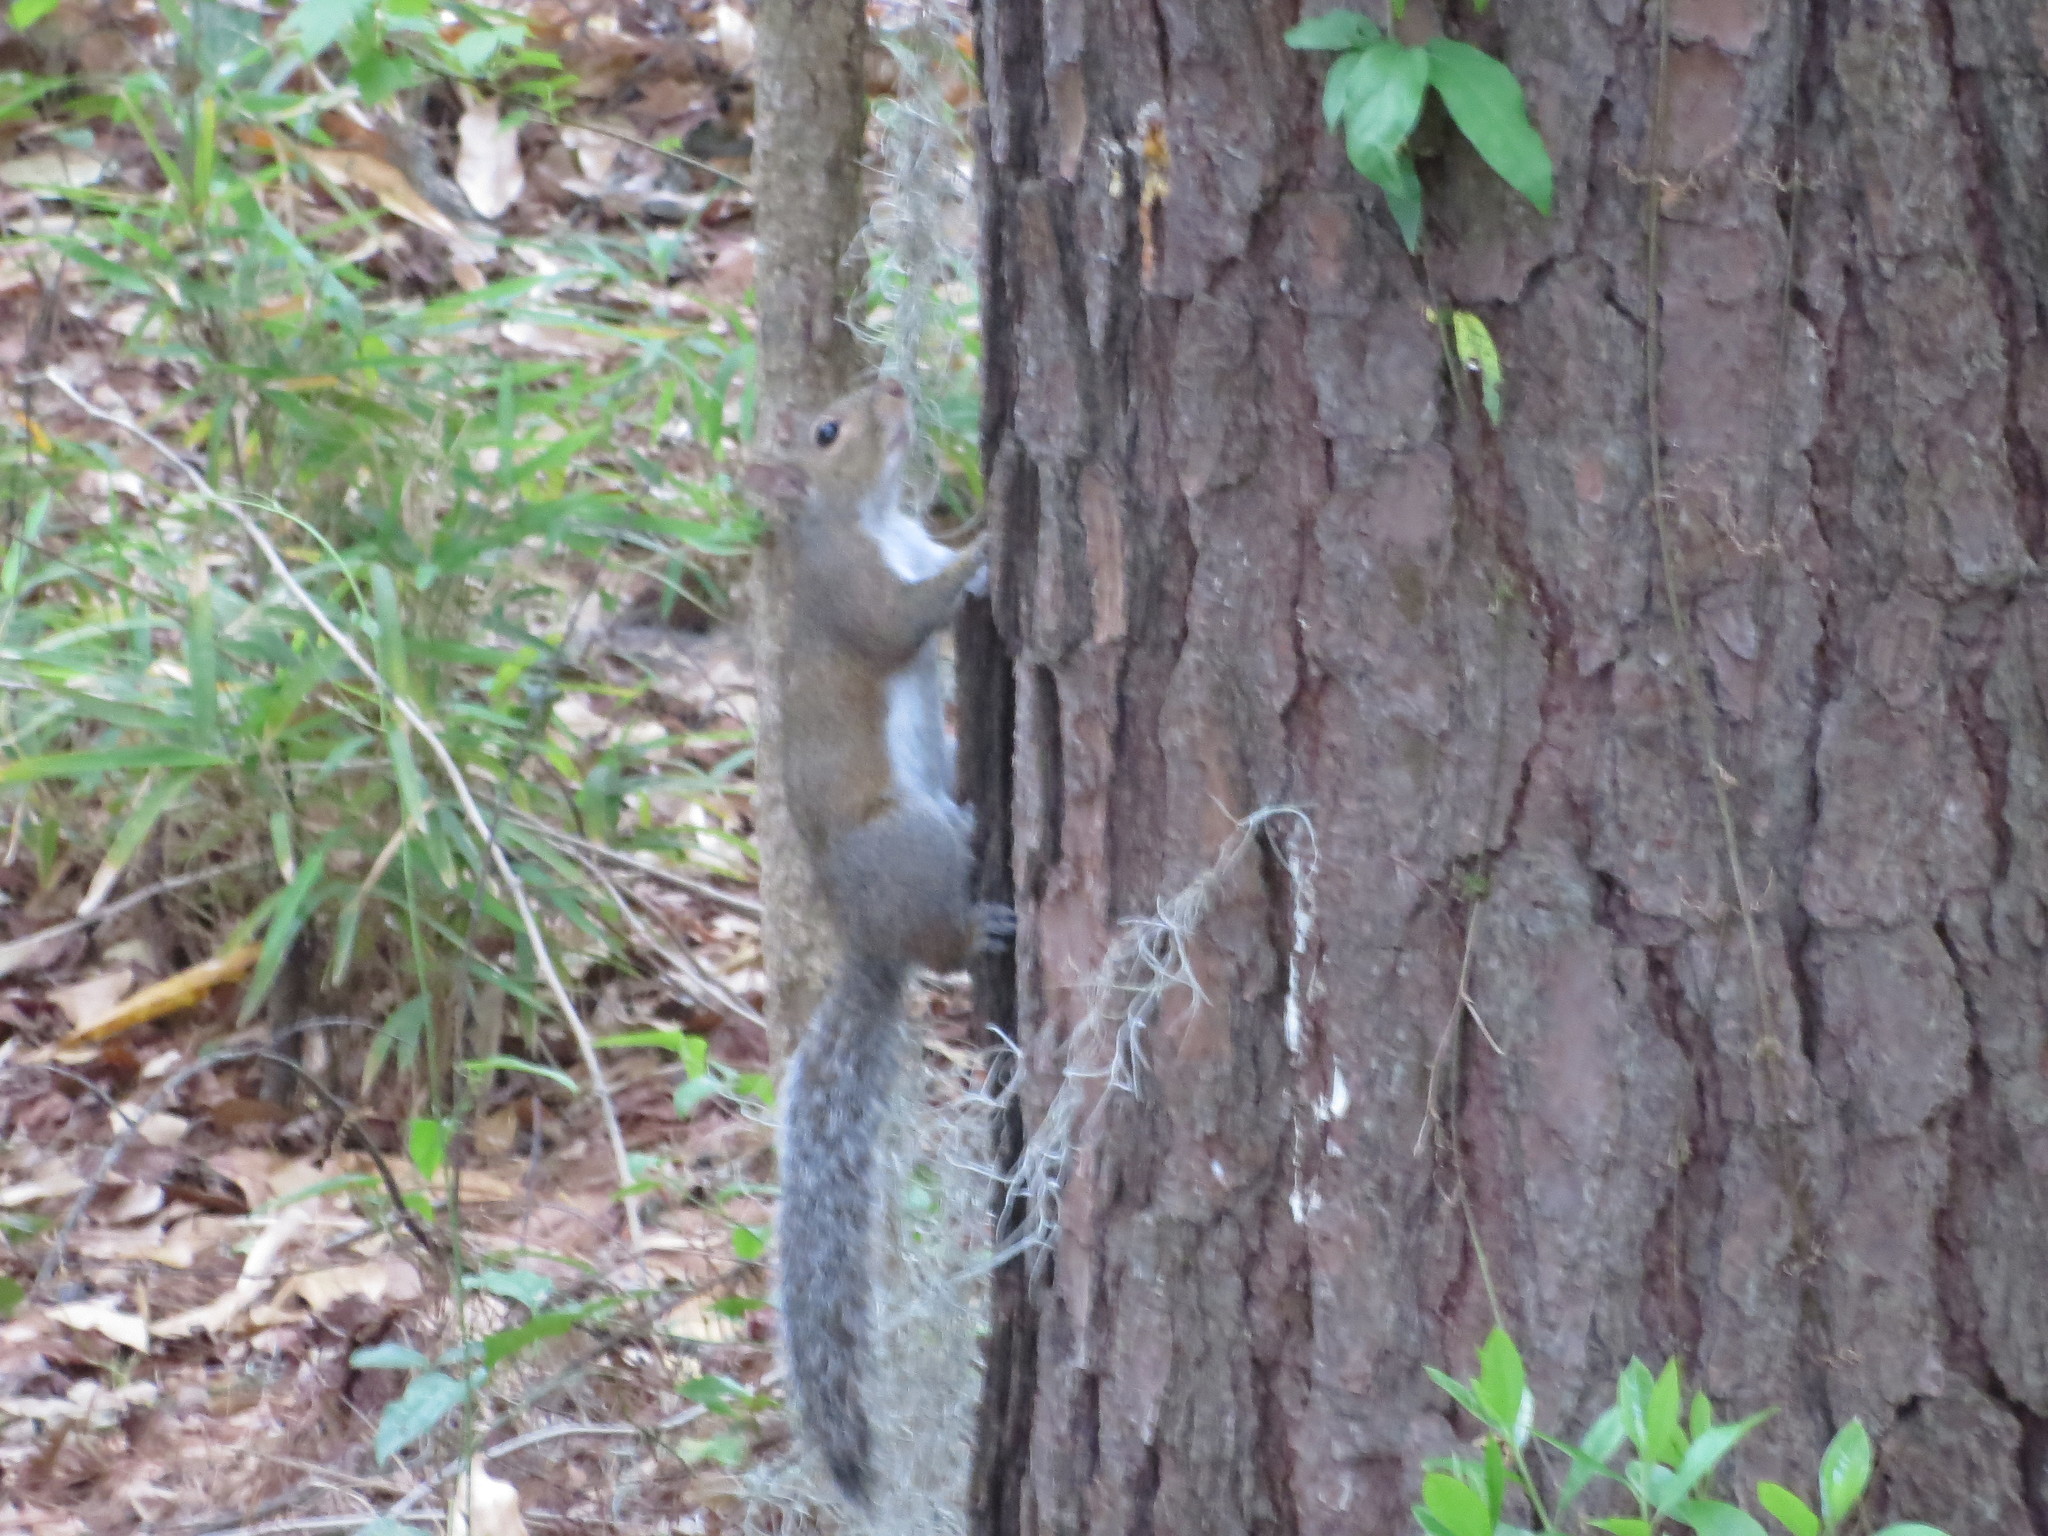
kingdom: Animalia
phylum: Chordata
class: Mammalia
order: Rodentia
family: Sciuridae
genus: Sciurus
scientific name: Sciurus carolinensis
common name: Eastern gray squirrel
